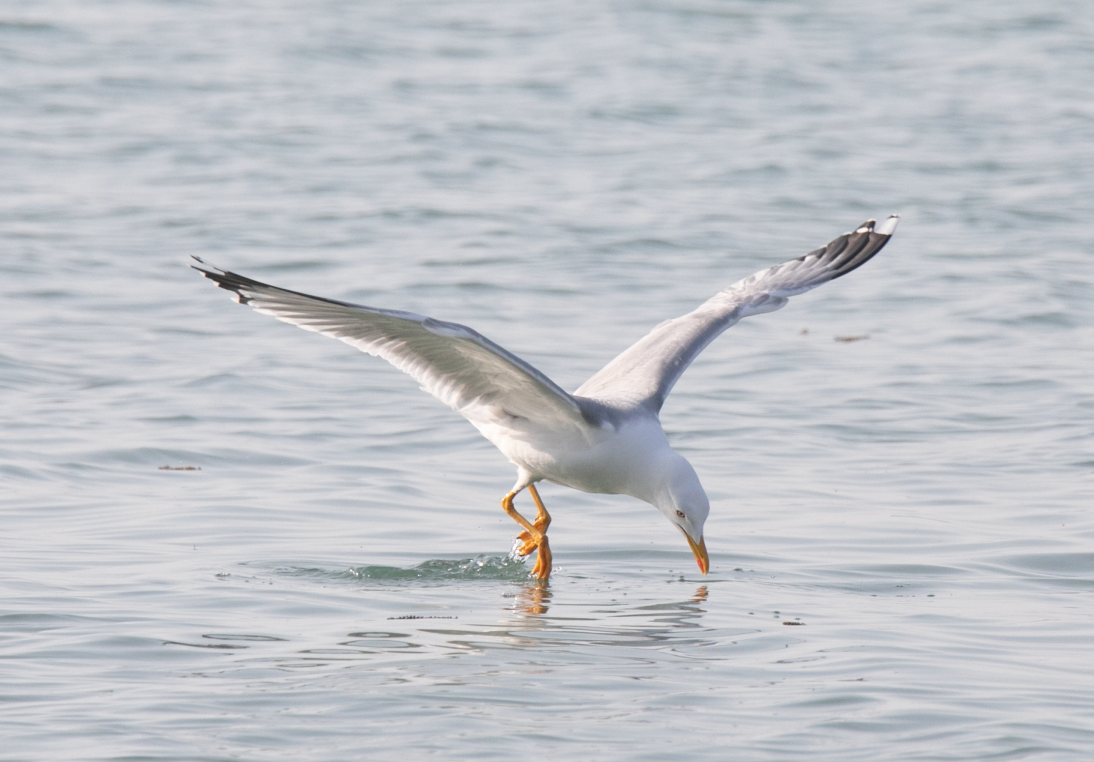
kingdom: Animalia
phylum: Chordata
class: Aves
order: Charadriiformes
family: Laridae
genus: Larus
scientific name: Larus michahellis
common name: Yellow-legged gull
